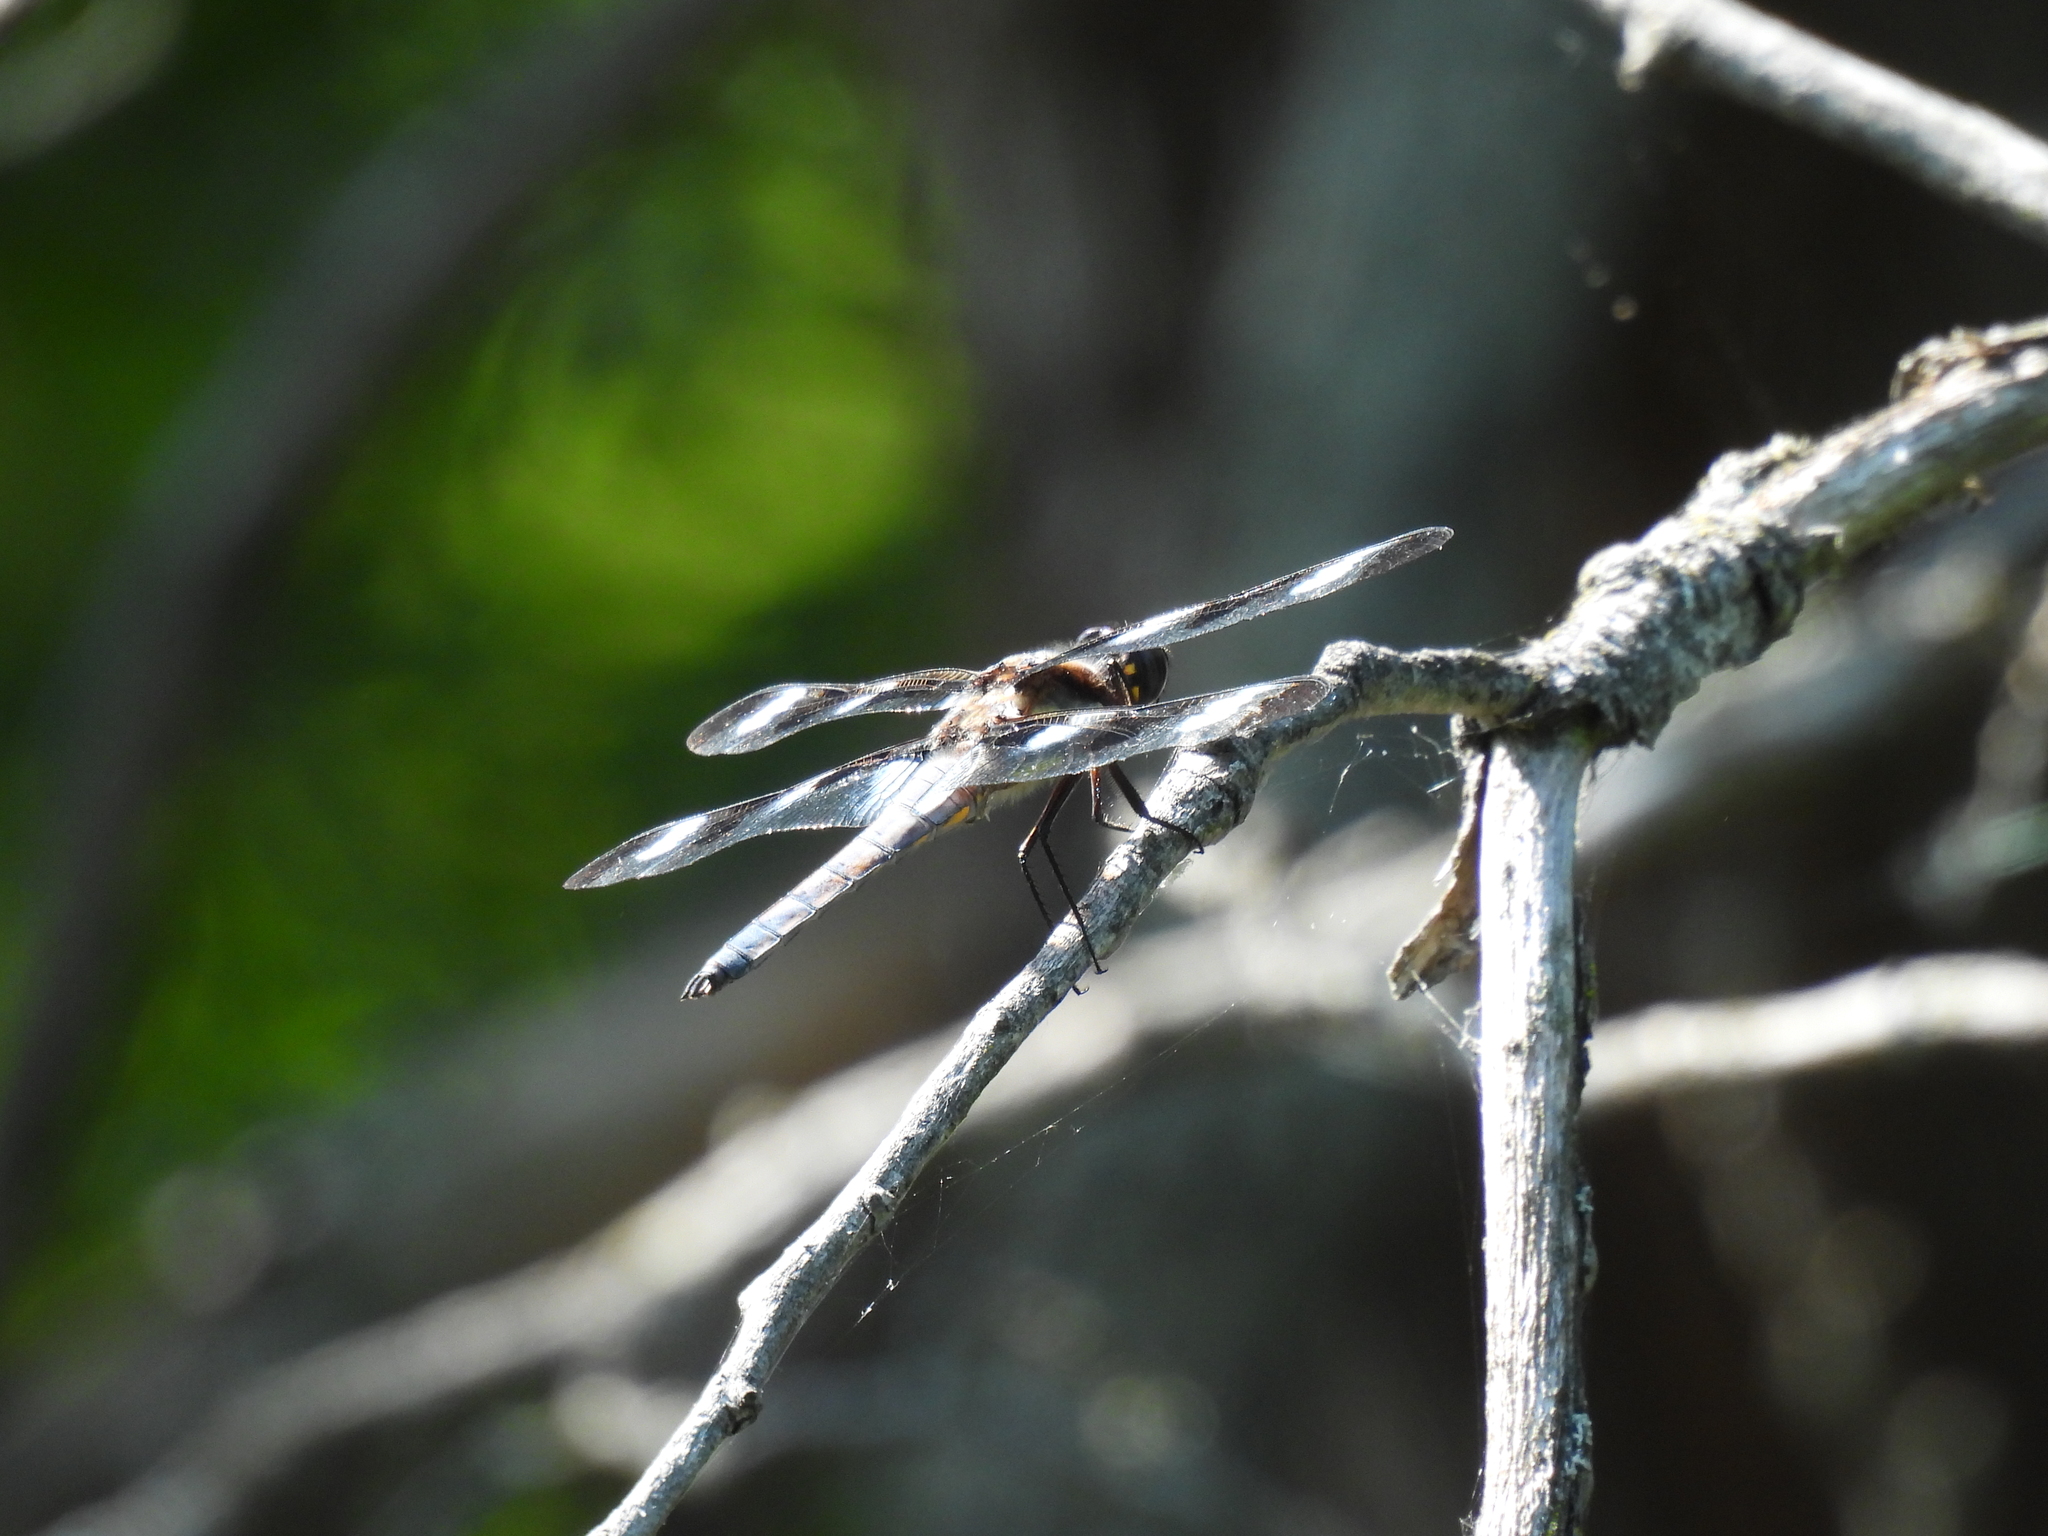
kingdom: Animalia
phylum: Arthropoda
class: Insecta
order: Odonata
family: Libellulidae
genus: Libellula
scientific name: Libellula pulchella
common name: Twelve-spotted skimmer
